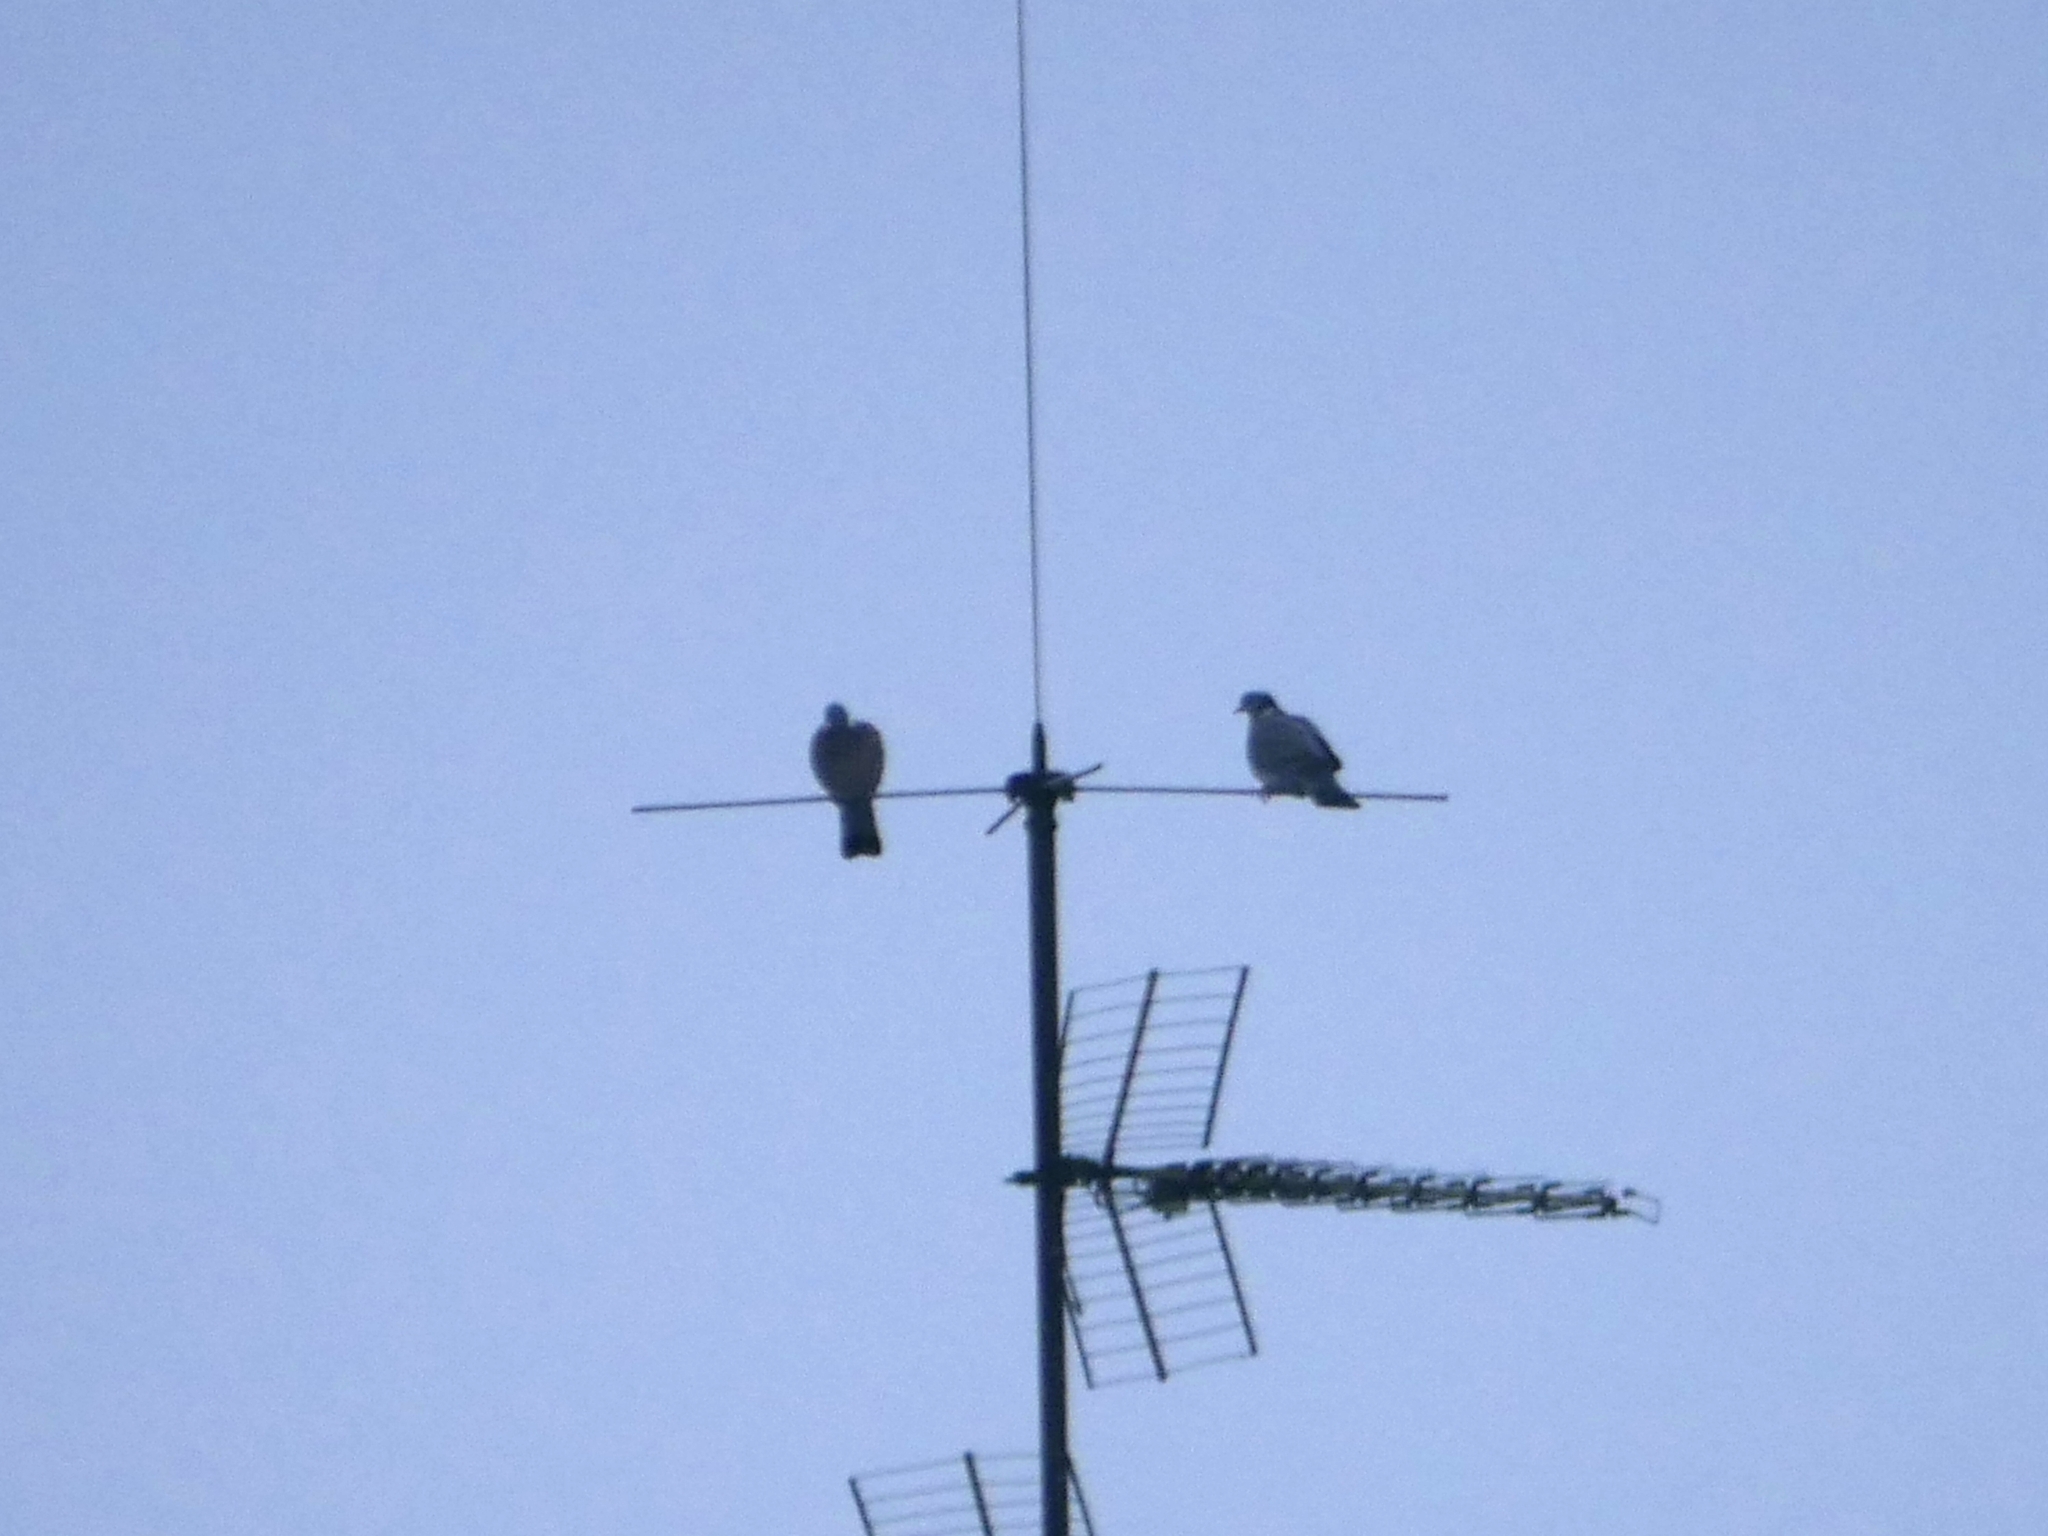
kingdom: Animalia
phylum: Chordata
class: Aves
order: Columbiformes
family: Columbidae
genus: Columba
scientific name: Columba palumbus
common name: Common wood pigeon
